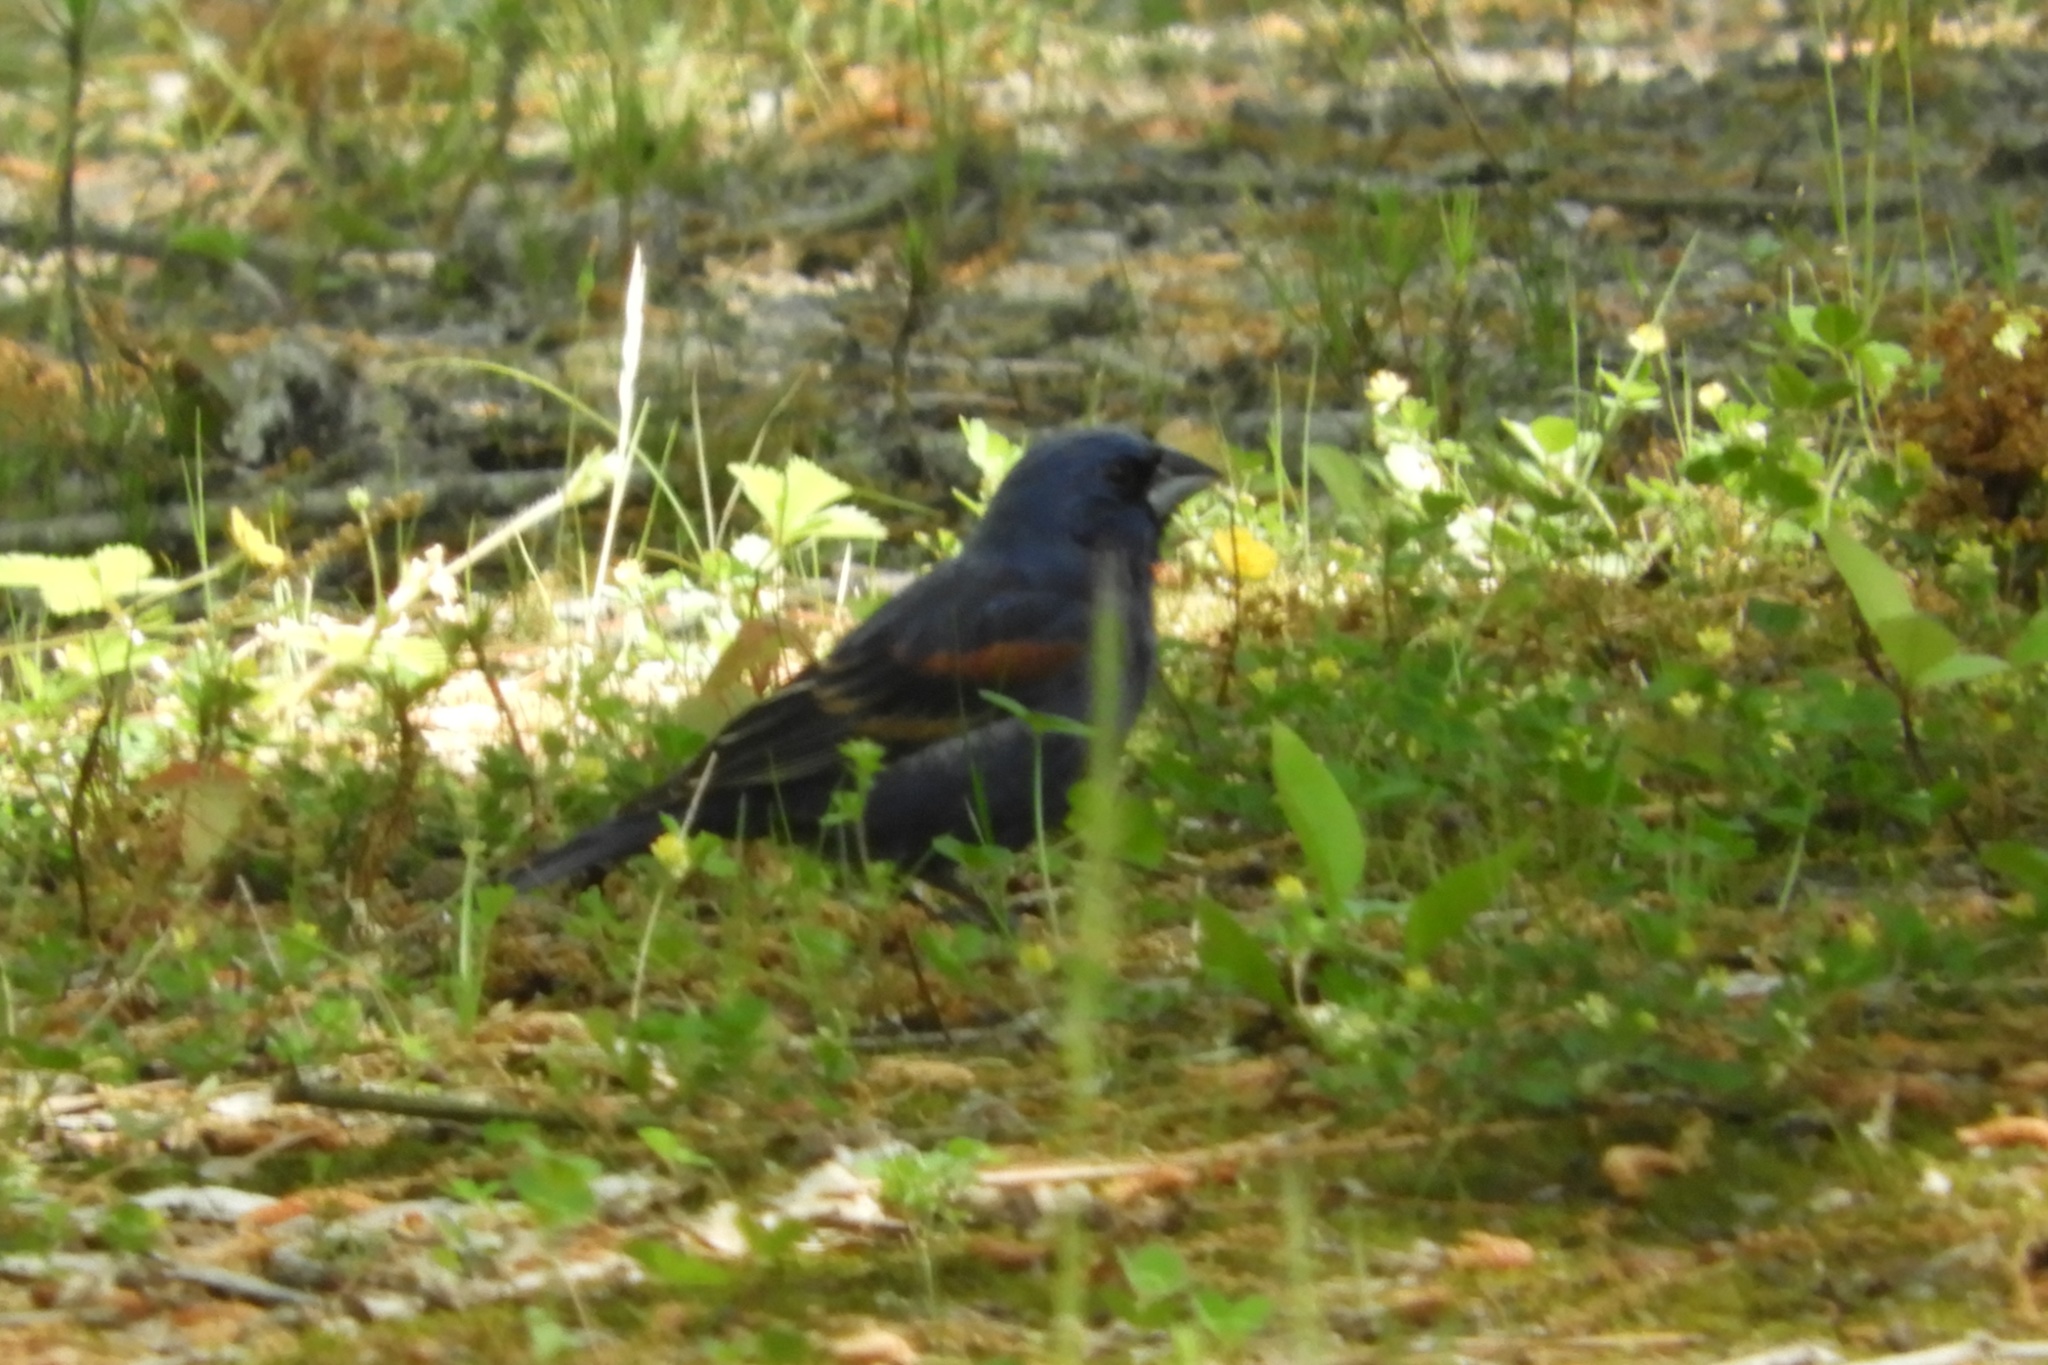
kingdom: Animalia
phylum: Chordata
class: Aves
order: Passeriformes
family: Cardinalidae
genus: Passerina
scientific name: Passerina caerulea
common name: Blue grosbeak
